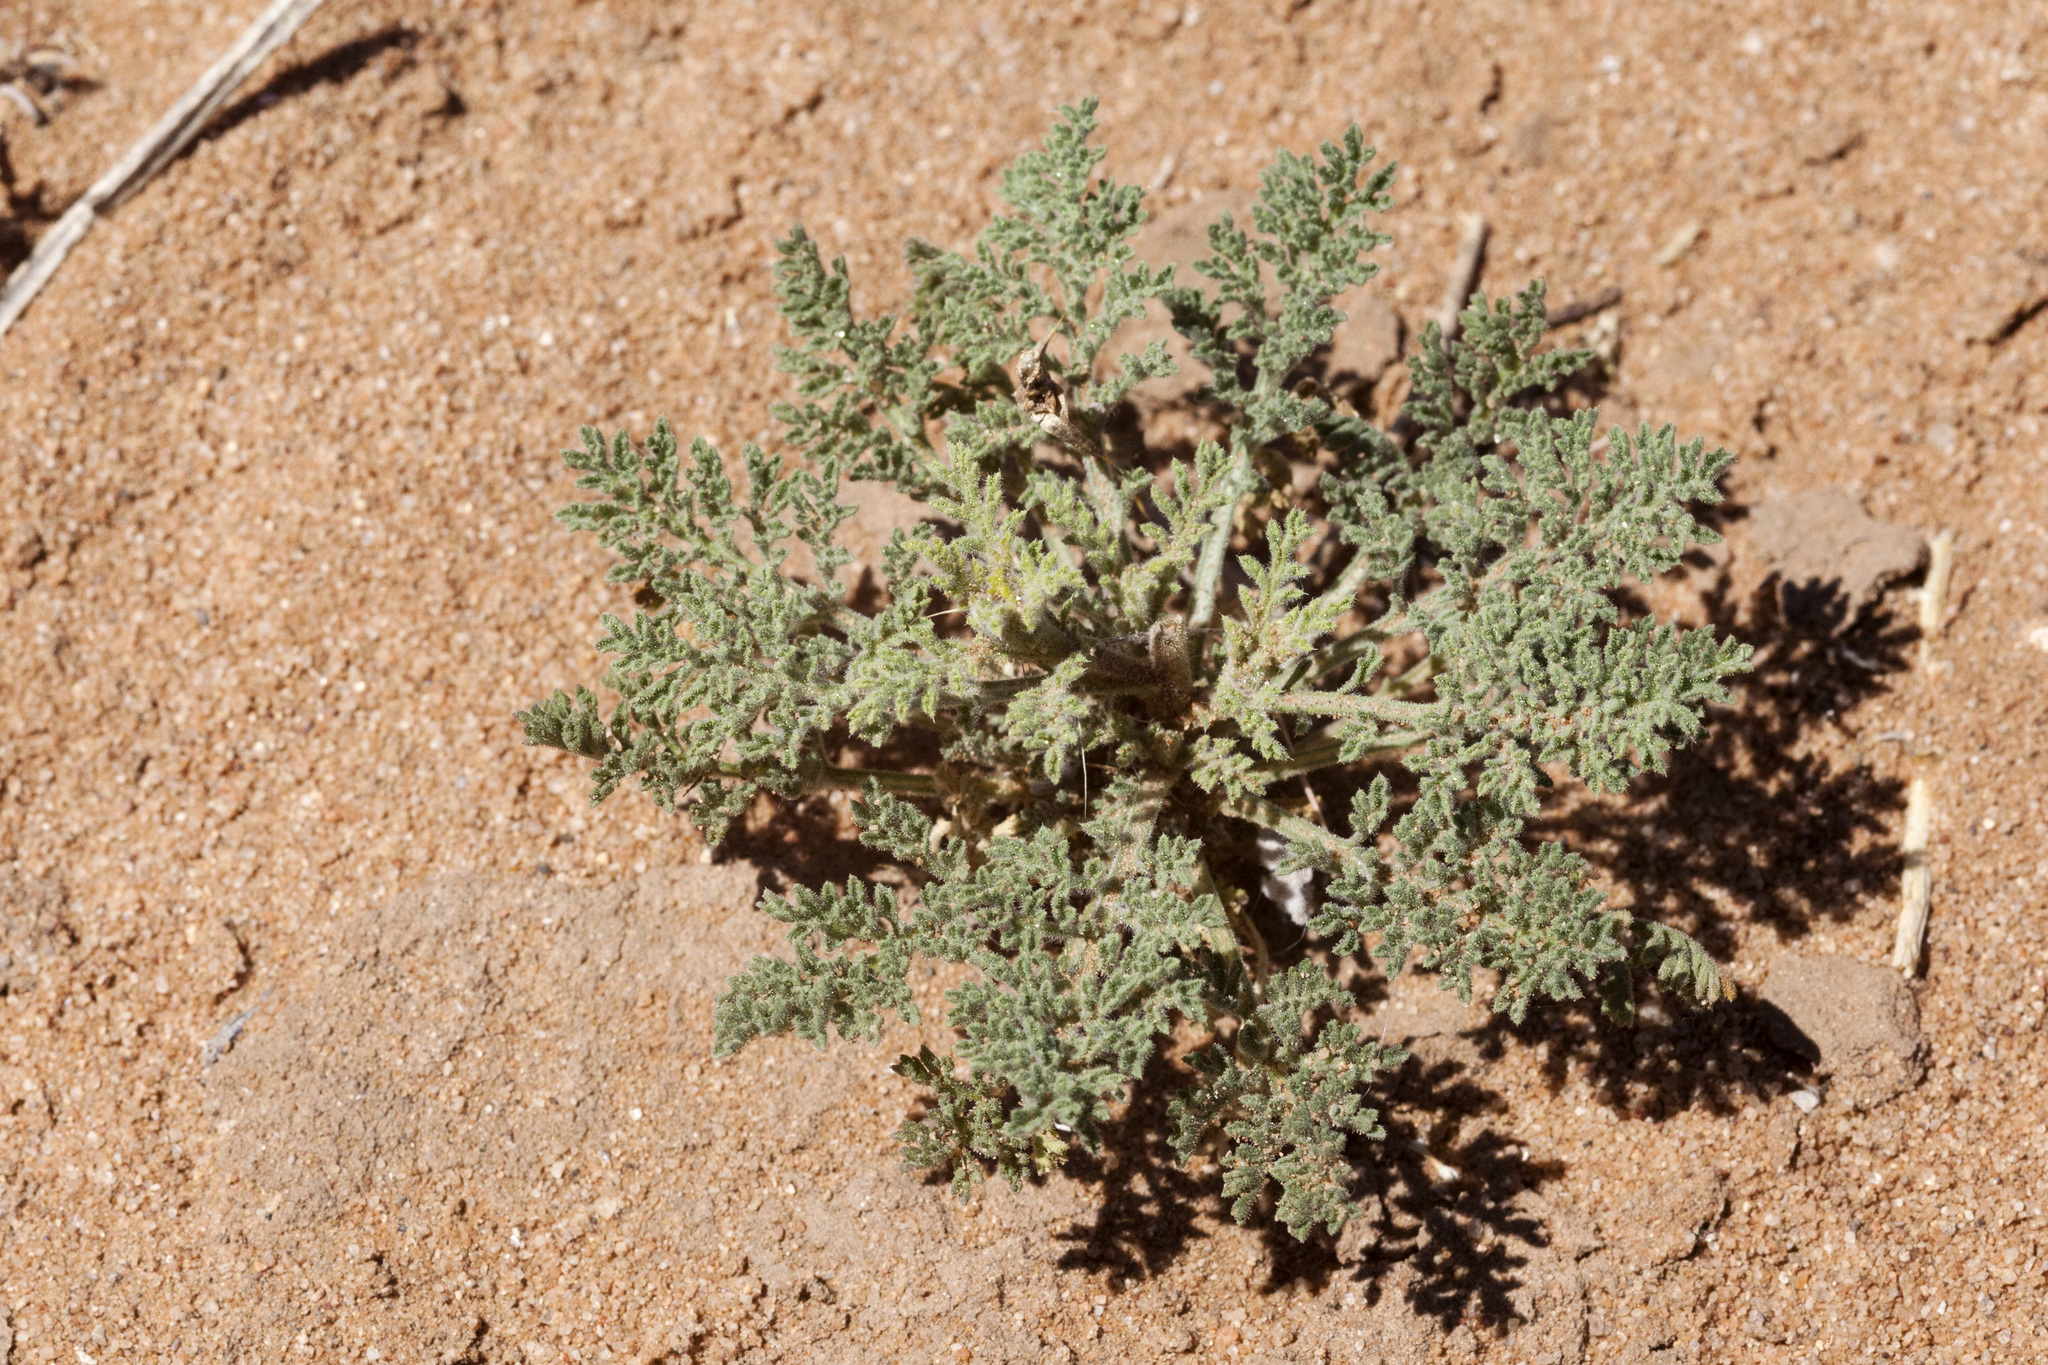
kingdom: Plantae
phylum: Tracheophyta
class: Magnoliopsida
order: Asterales
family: Asteraceae
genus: Machaeranthera
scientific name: Machaeranthera tanacetifolia
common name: Tansy-aster
